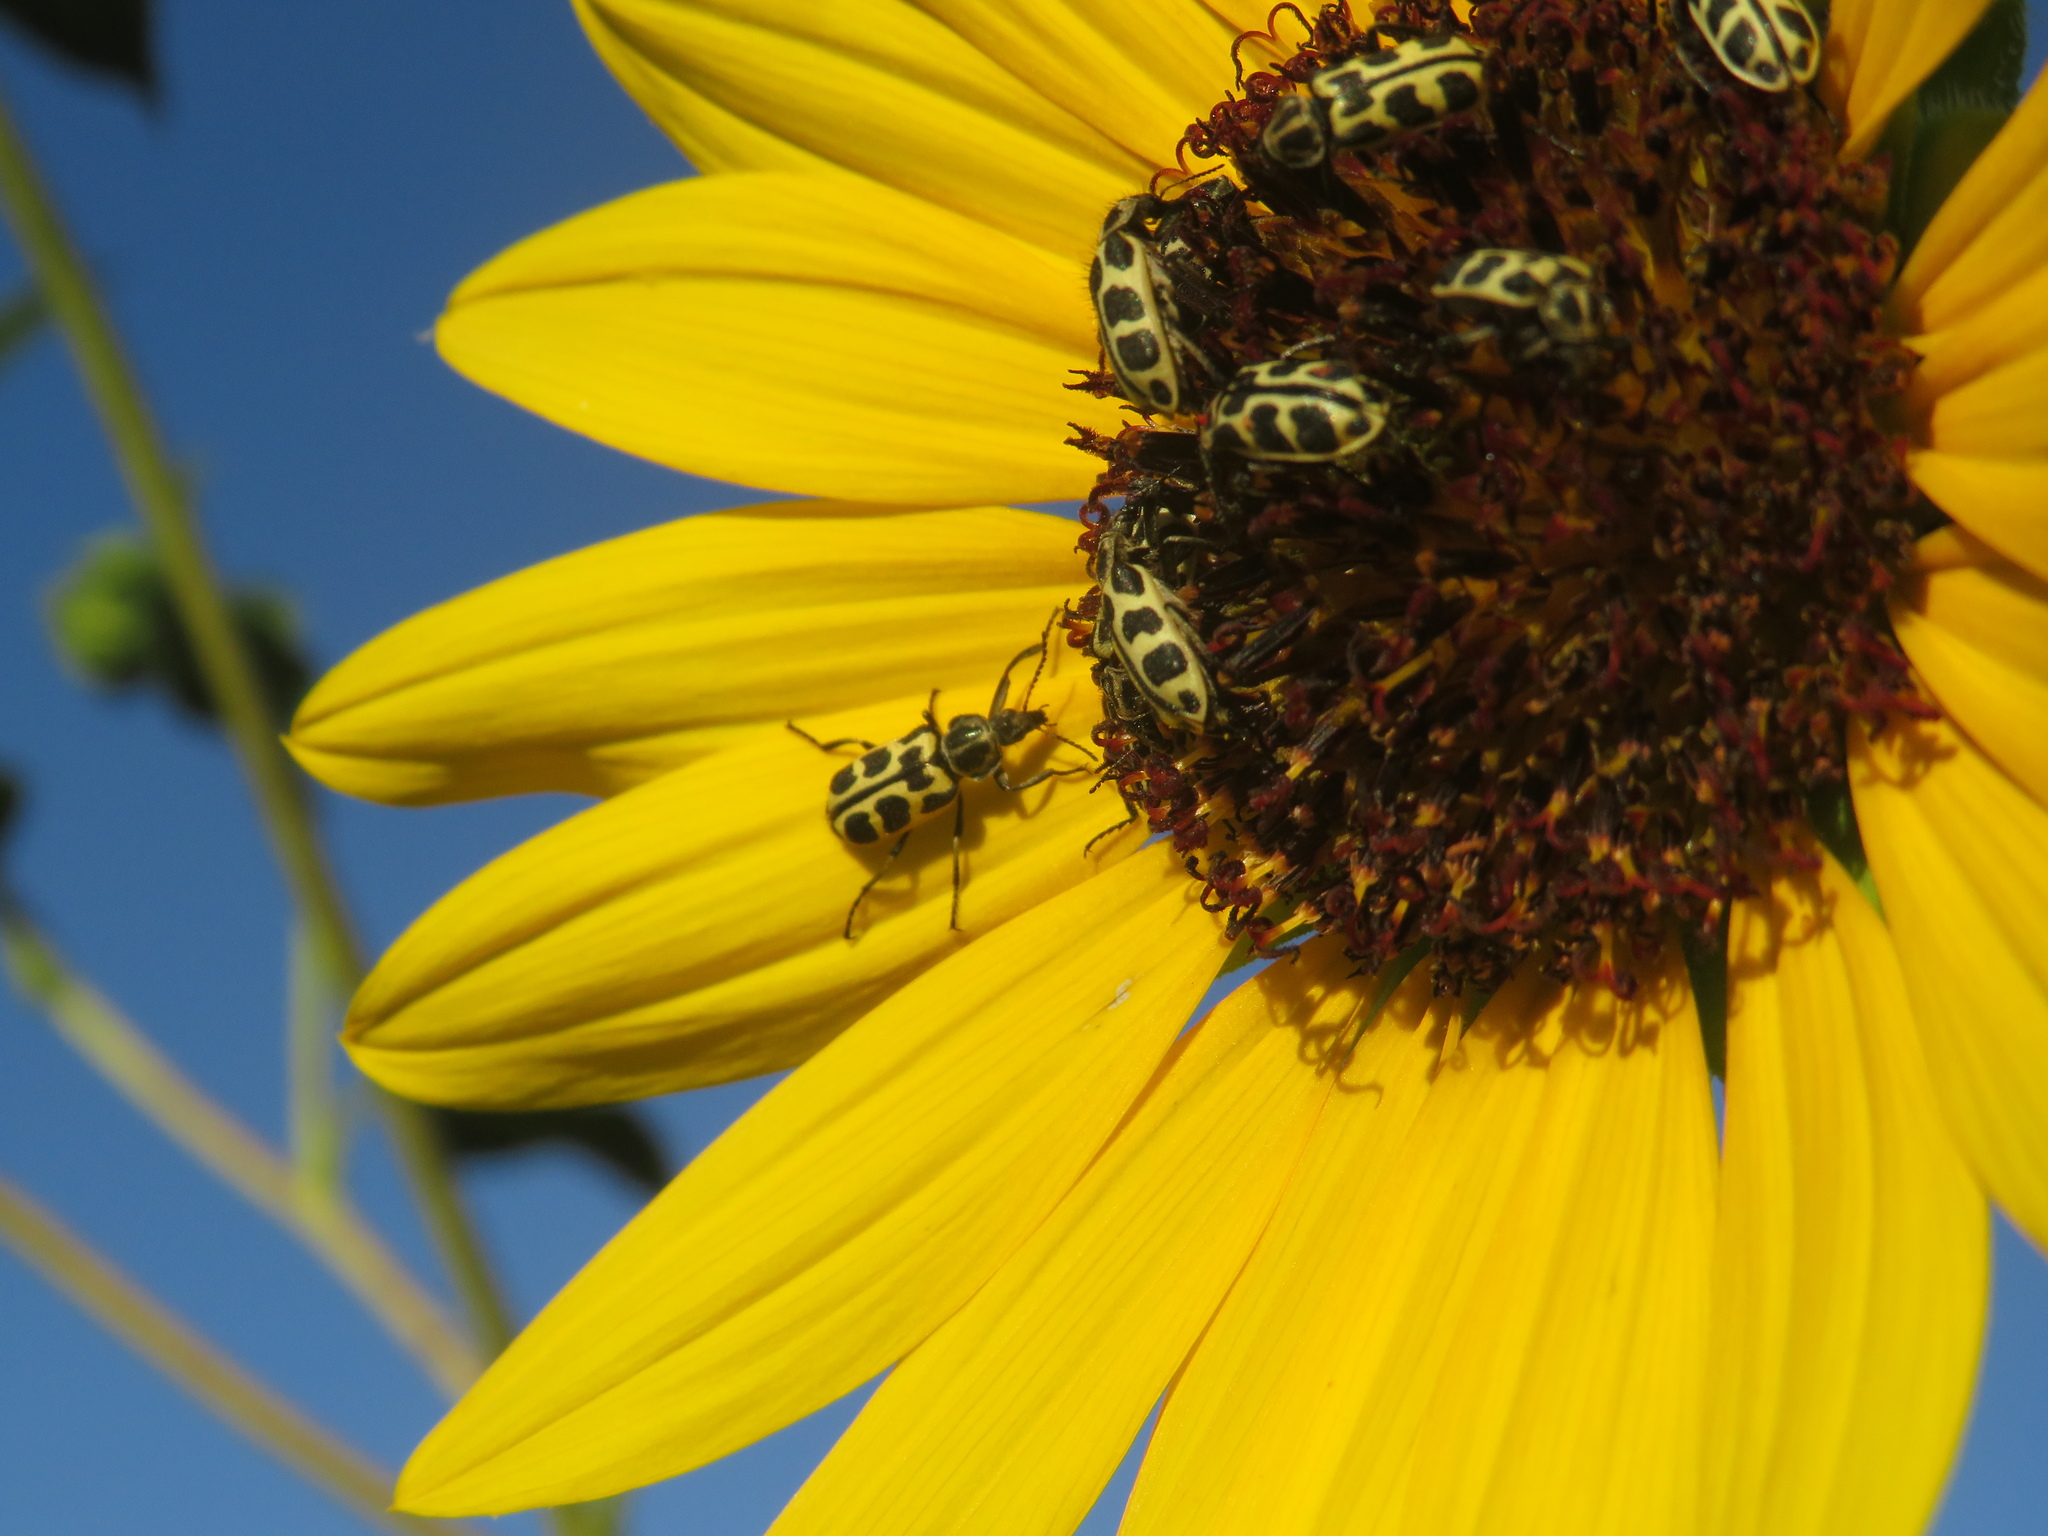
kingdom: Animalia
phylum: Arthropoda
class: Insecta
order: Coleoptera
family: Melyridae
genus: Astylus
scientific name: Astylus atromaculatus
